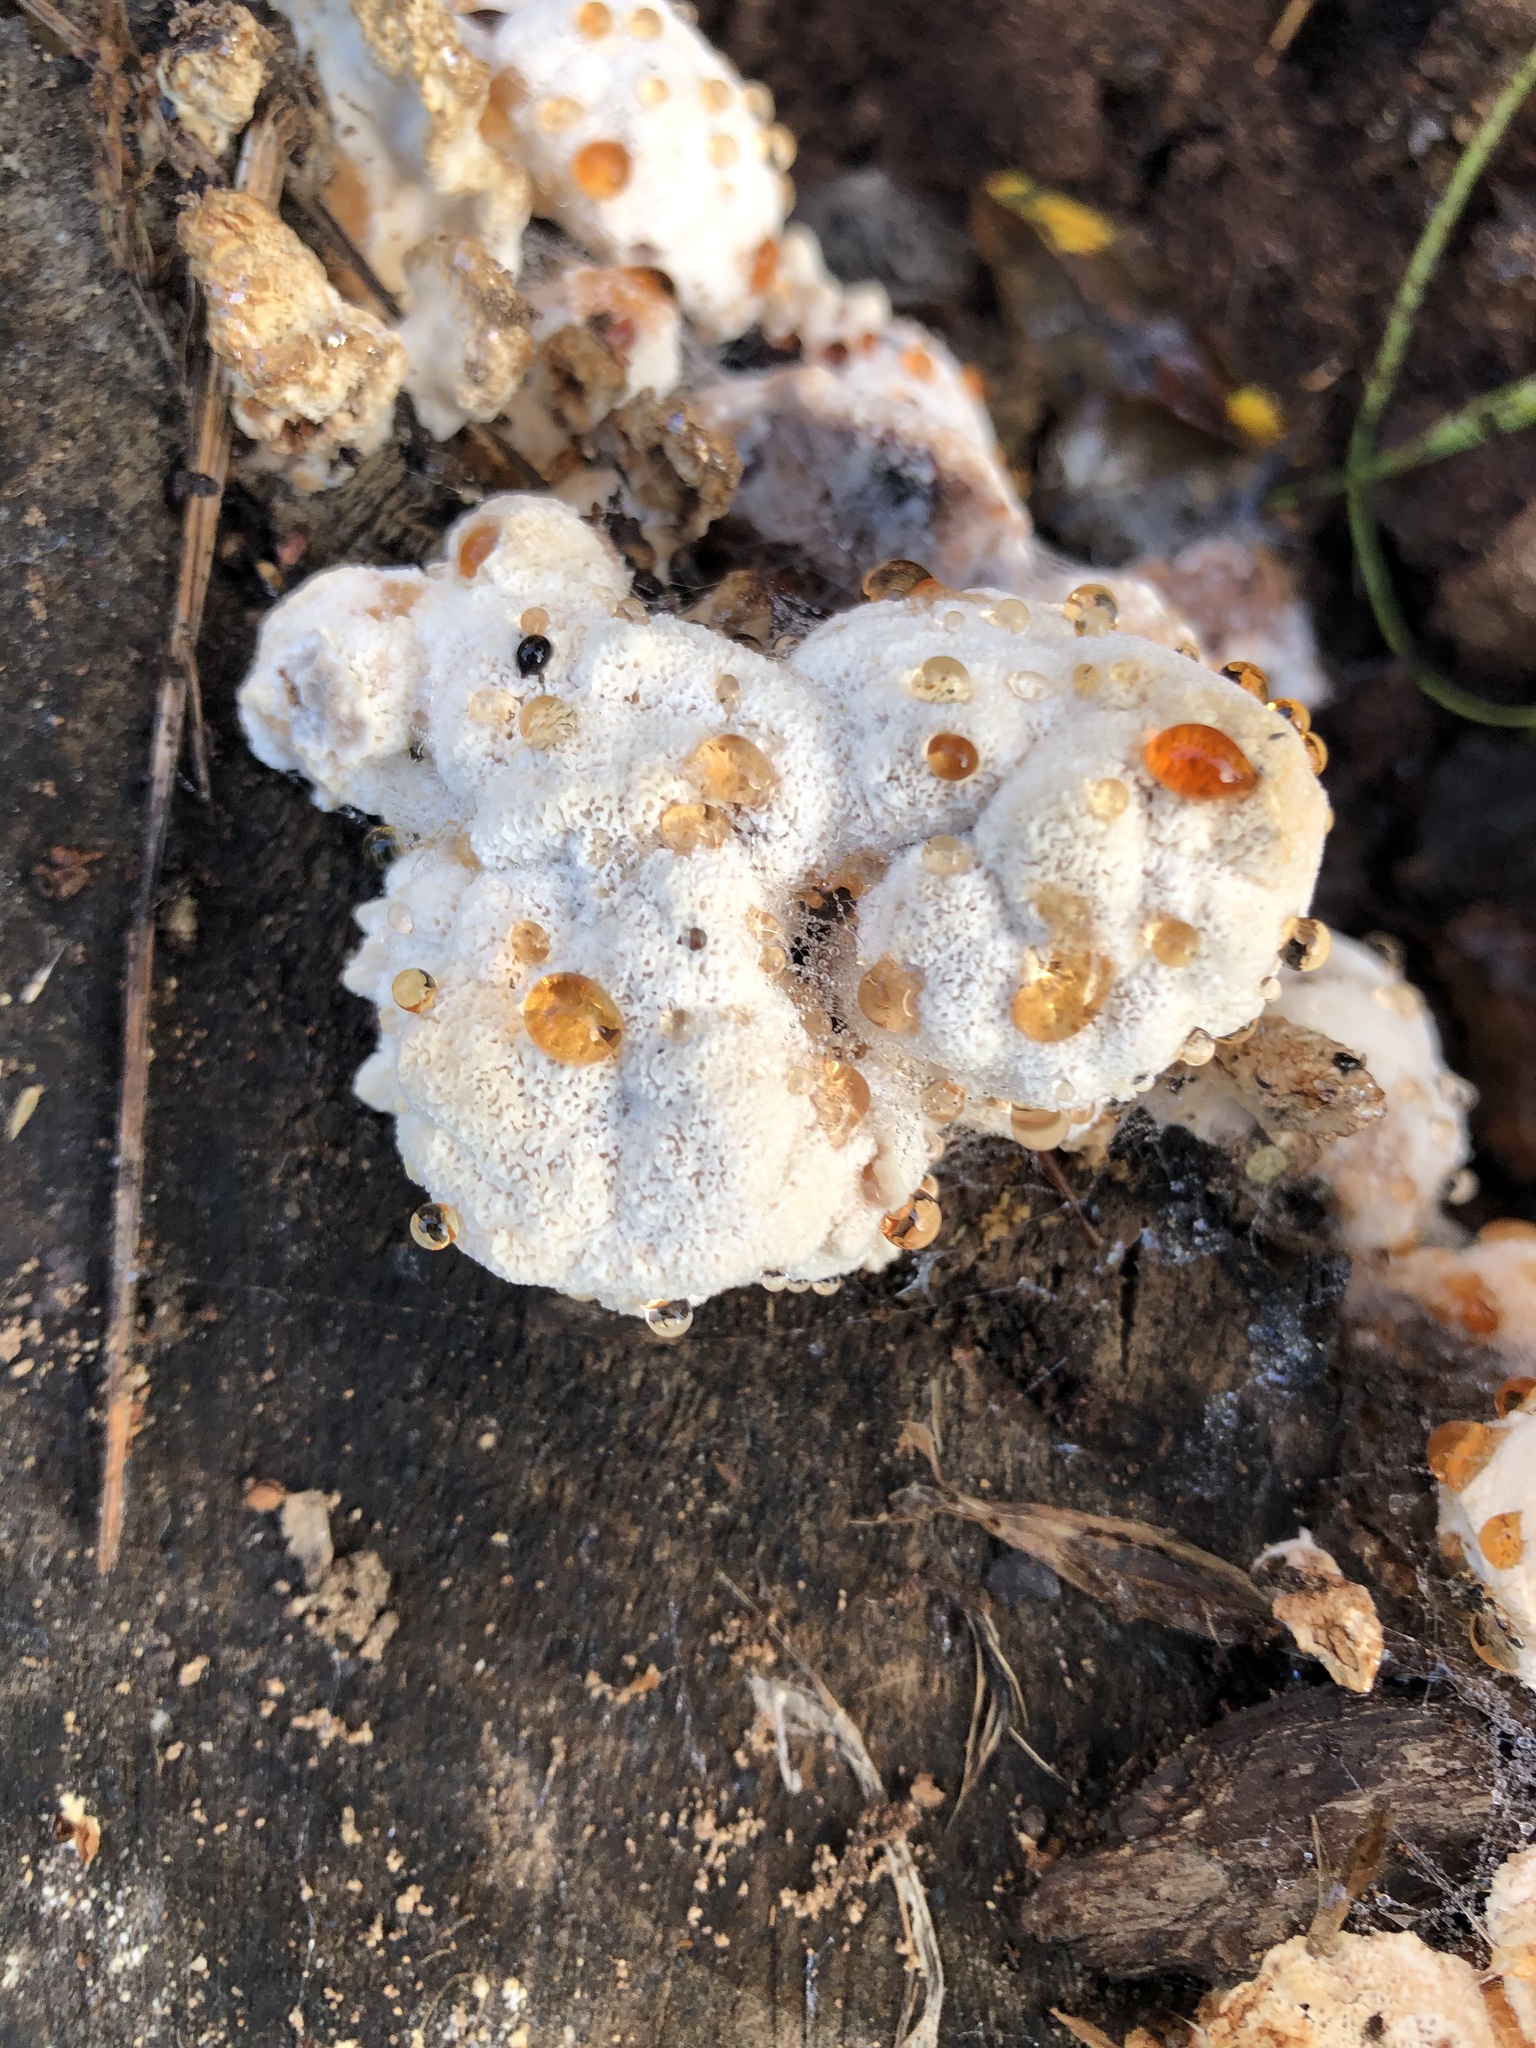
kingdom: Fungi
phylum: Basidiomycota
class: Agaricomycetes
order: Polyporales
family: Podoscyphaceae
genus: Abortiporus
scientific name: Abortiporus biennis
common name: Blushing rosette
